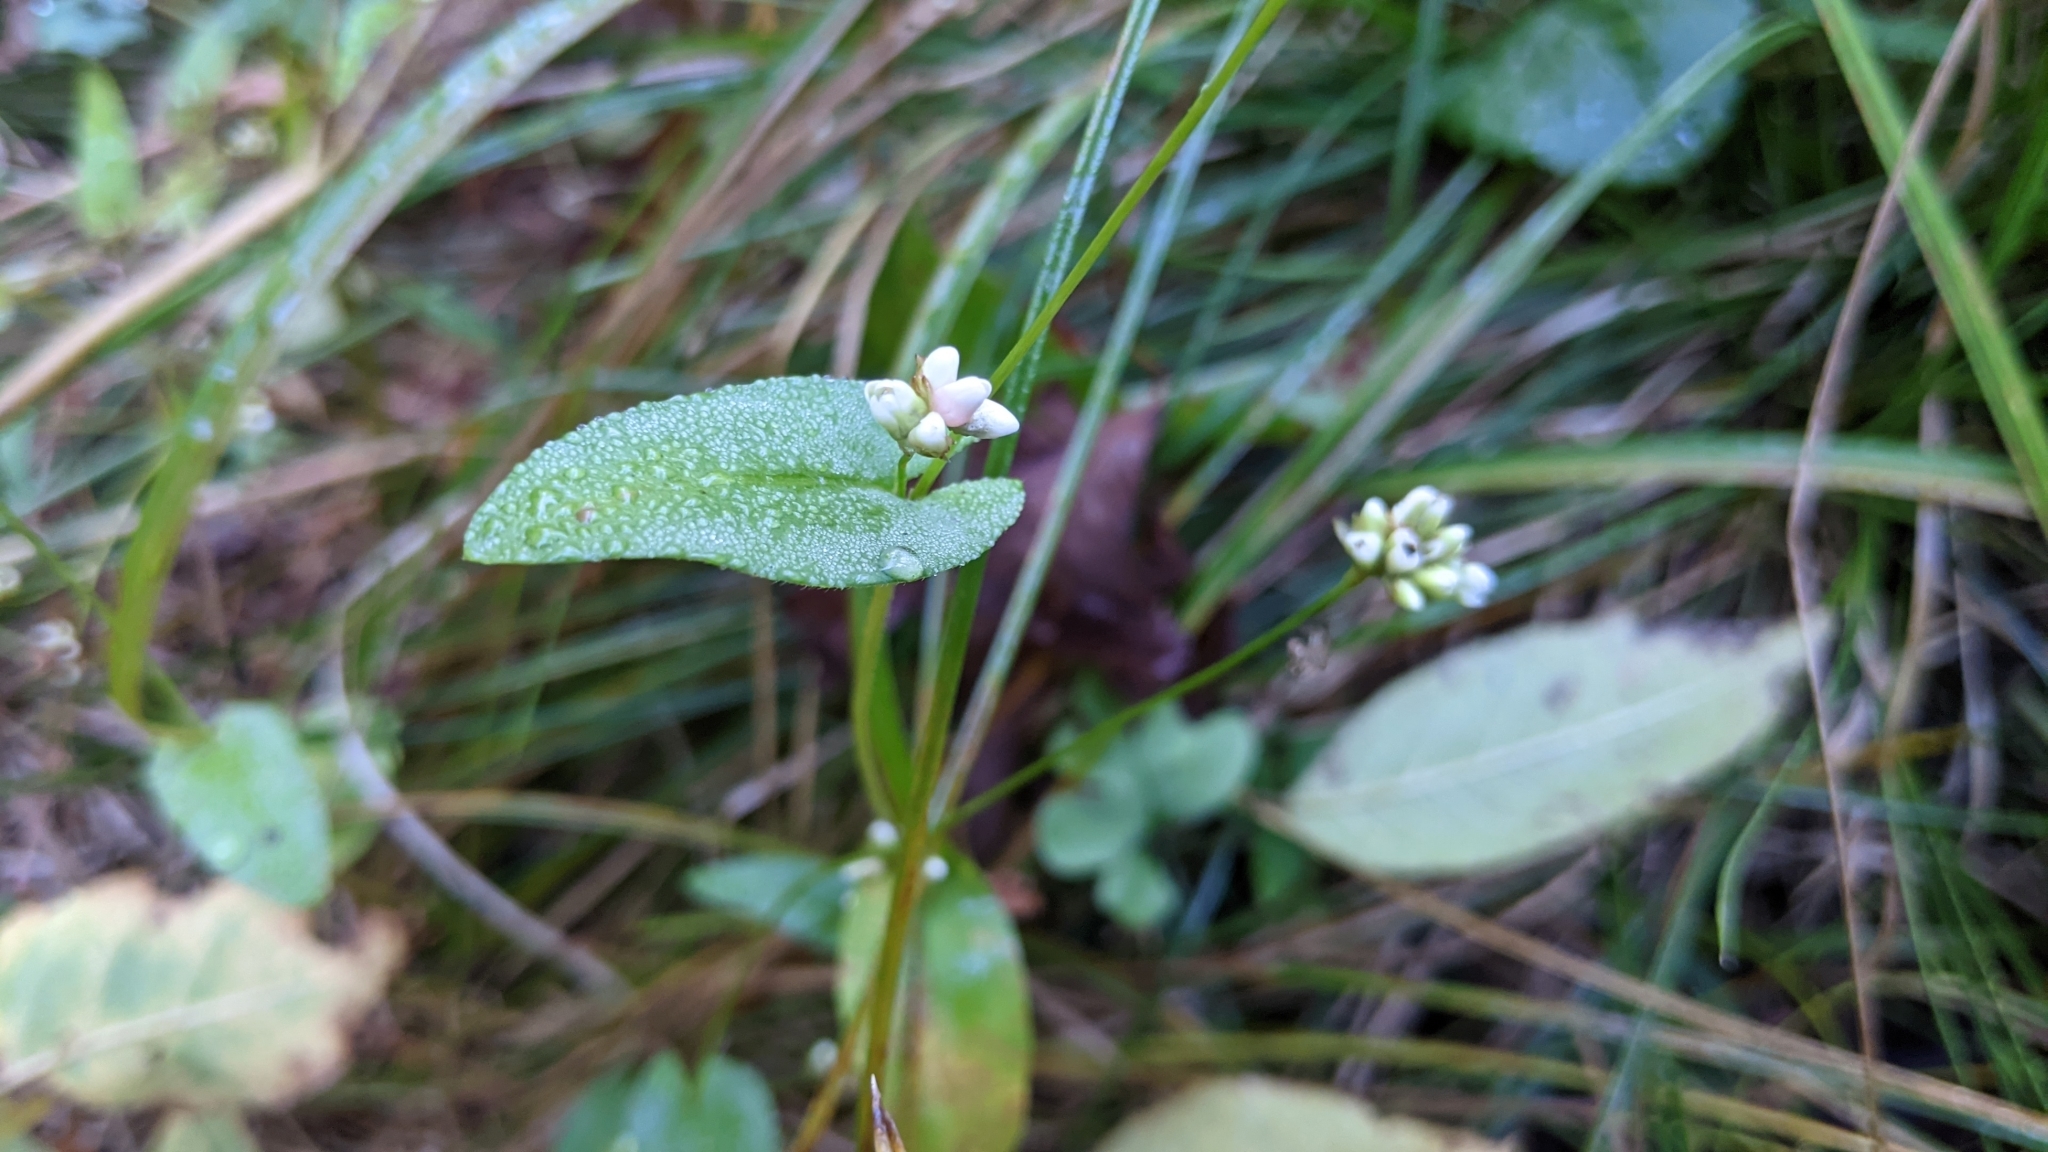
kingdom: Plantae
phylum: Tracheophyta
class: Magnoliopsida
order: Caryophyllales
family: Polygonaceae
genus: Persicaria
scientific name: Persicaria sagittata
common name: American tearthumb
